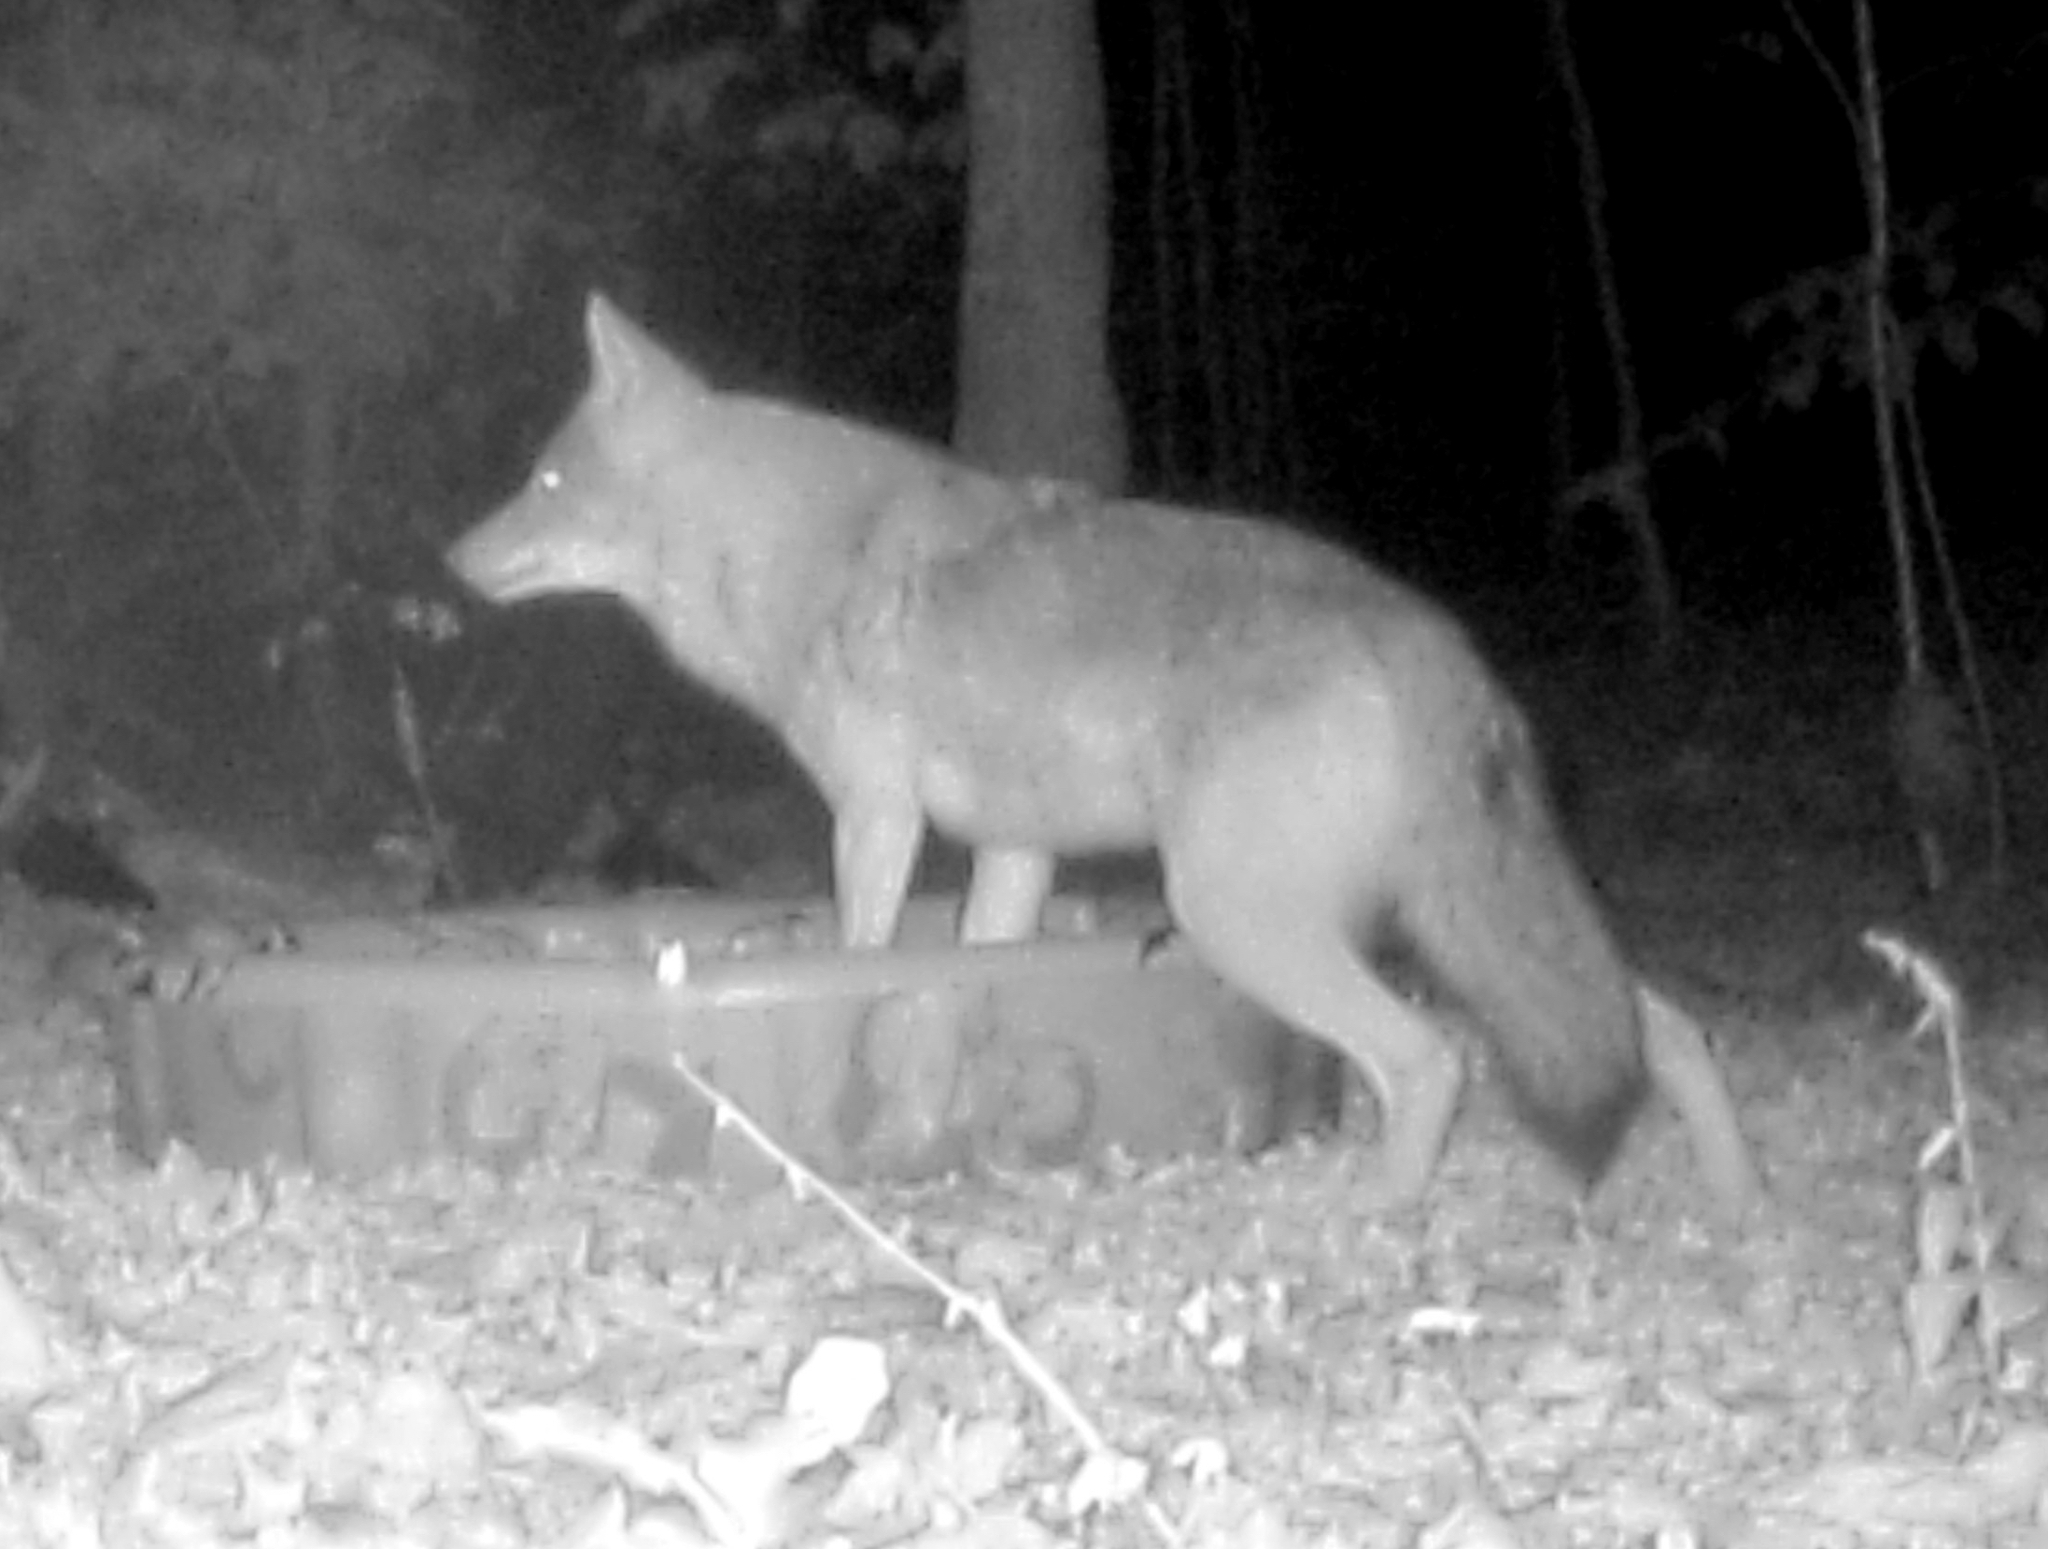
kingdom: Animalia
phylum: Chordata
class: Mammalia
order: Carnivora
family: Canidae
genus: Canis
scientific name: Canis latrans
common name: Coyote
